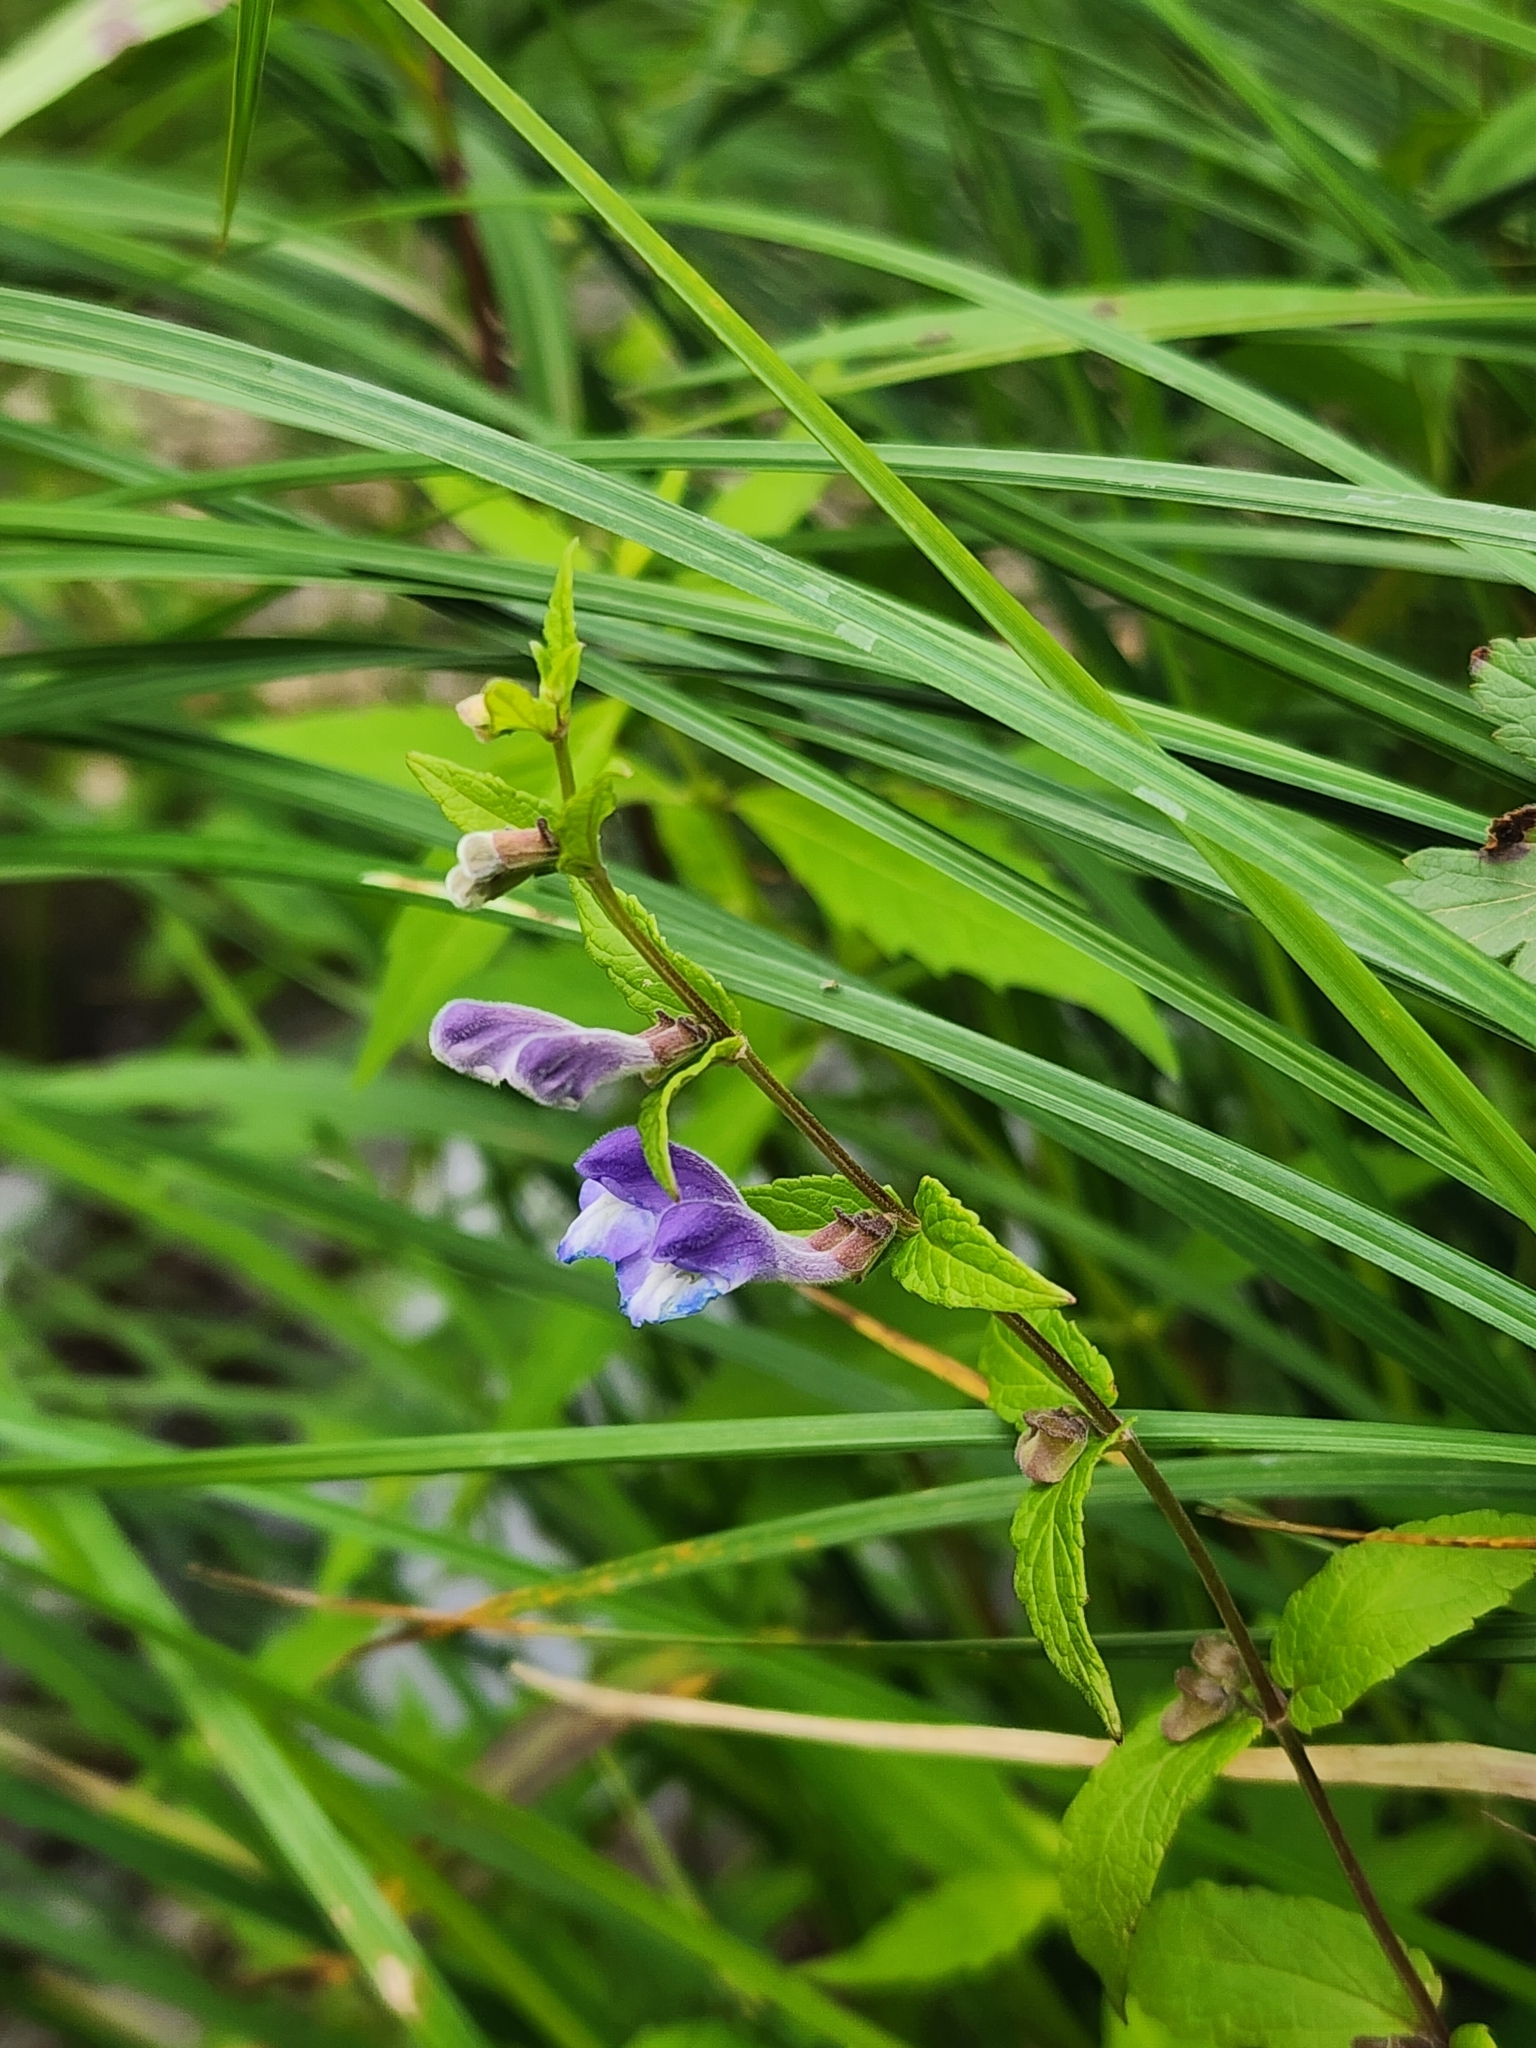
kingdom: Plantae
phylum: Tracheophyta
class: Magnoliopsida
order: Lamiales
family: Lamiaceae
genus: Scutellaria
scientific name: Scutellaria galericulata
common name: Skullcap
